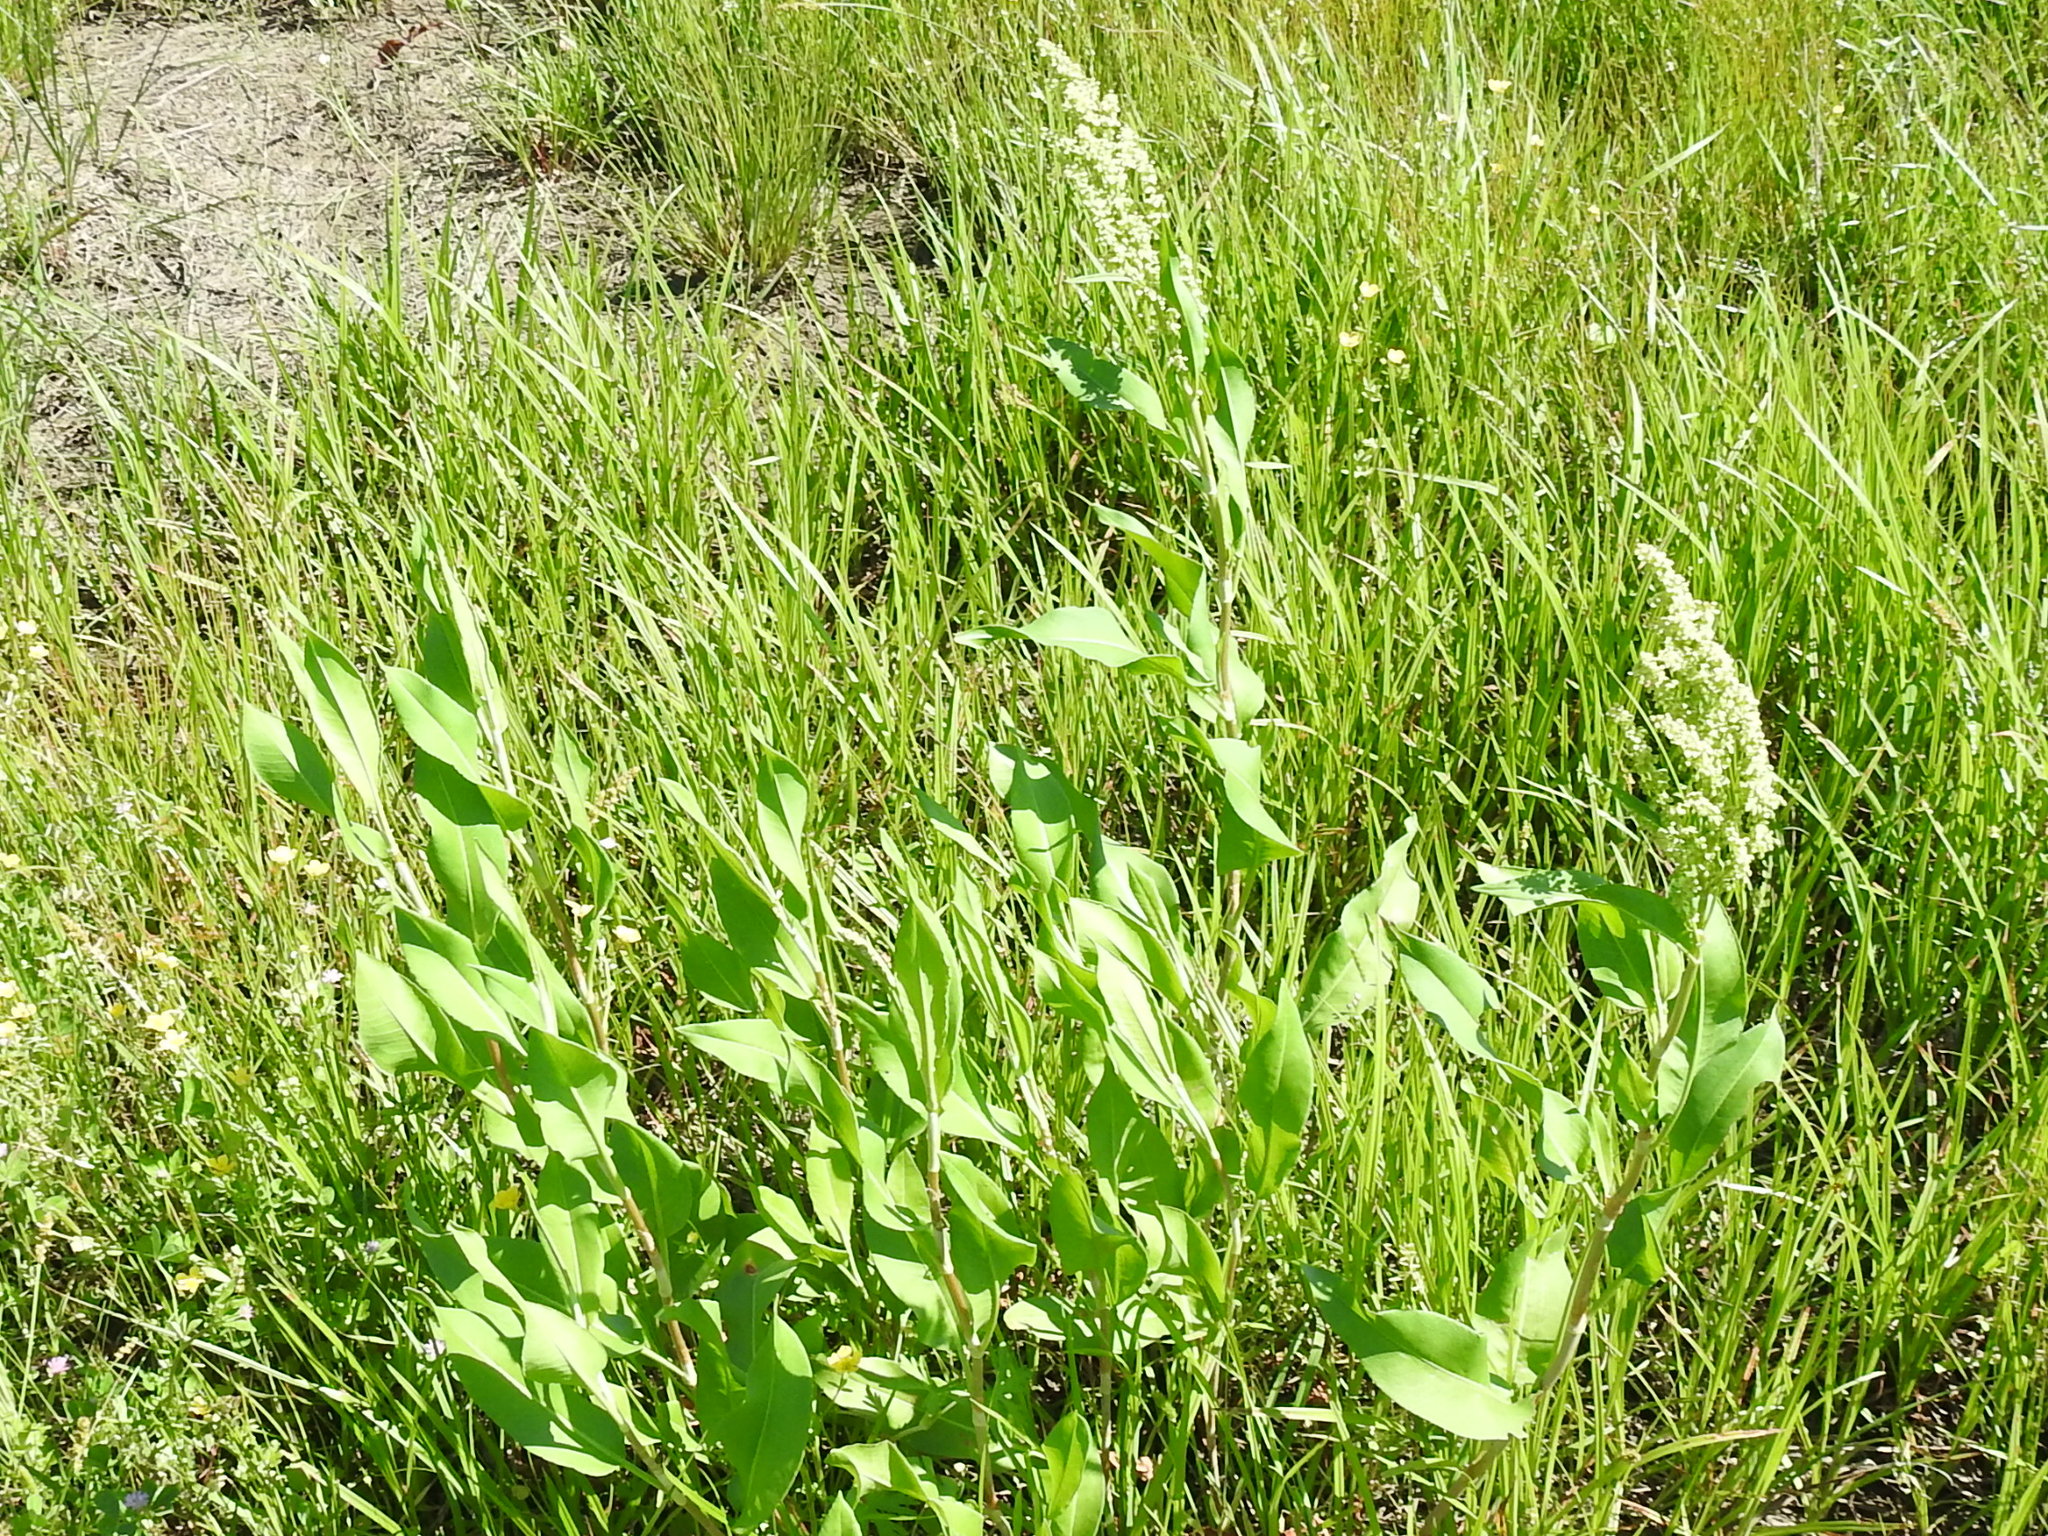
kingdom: Plantae
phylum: Tracheophyta
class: Magnoliopsida
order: Caryophyllales
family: Polygonaceae
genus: Rumex
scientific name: Rumex altissimus
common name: Smooth dock
